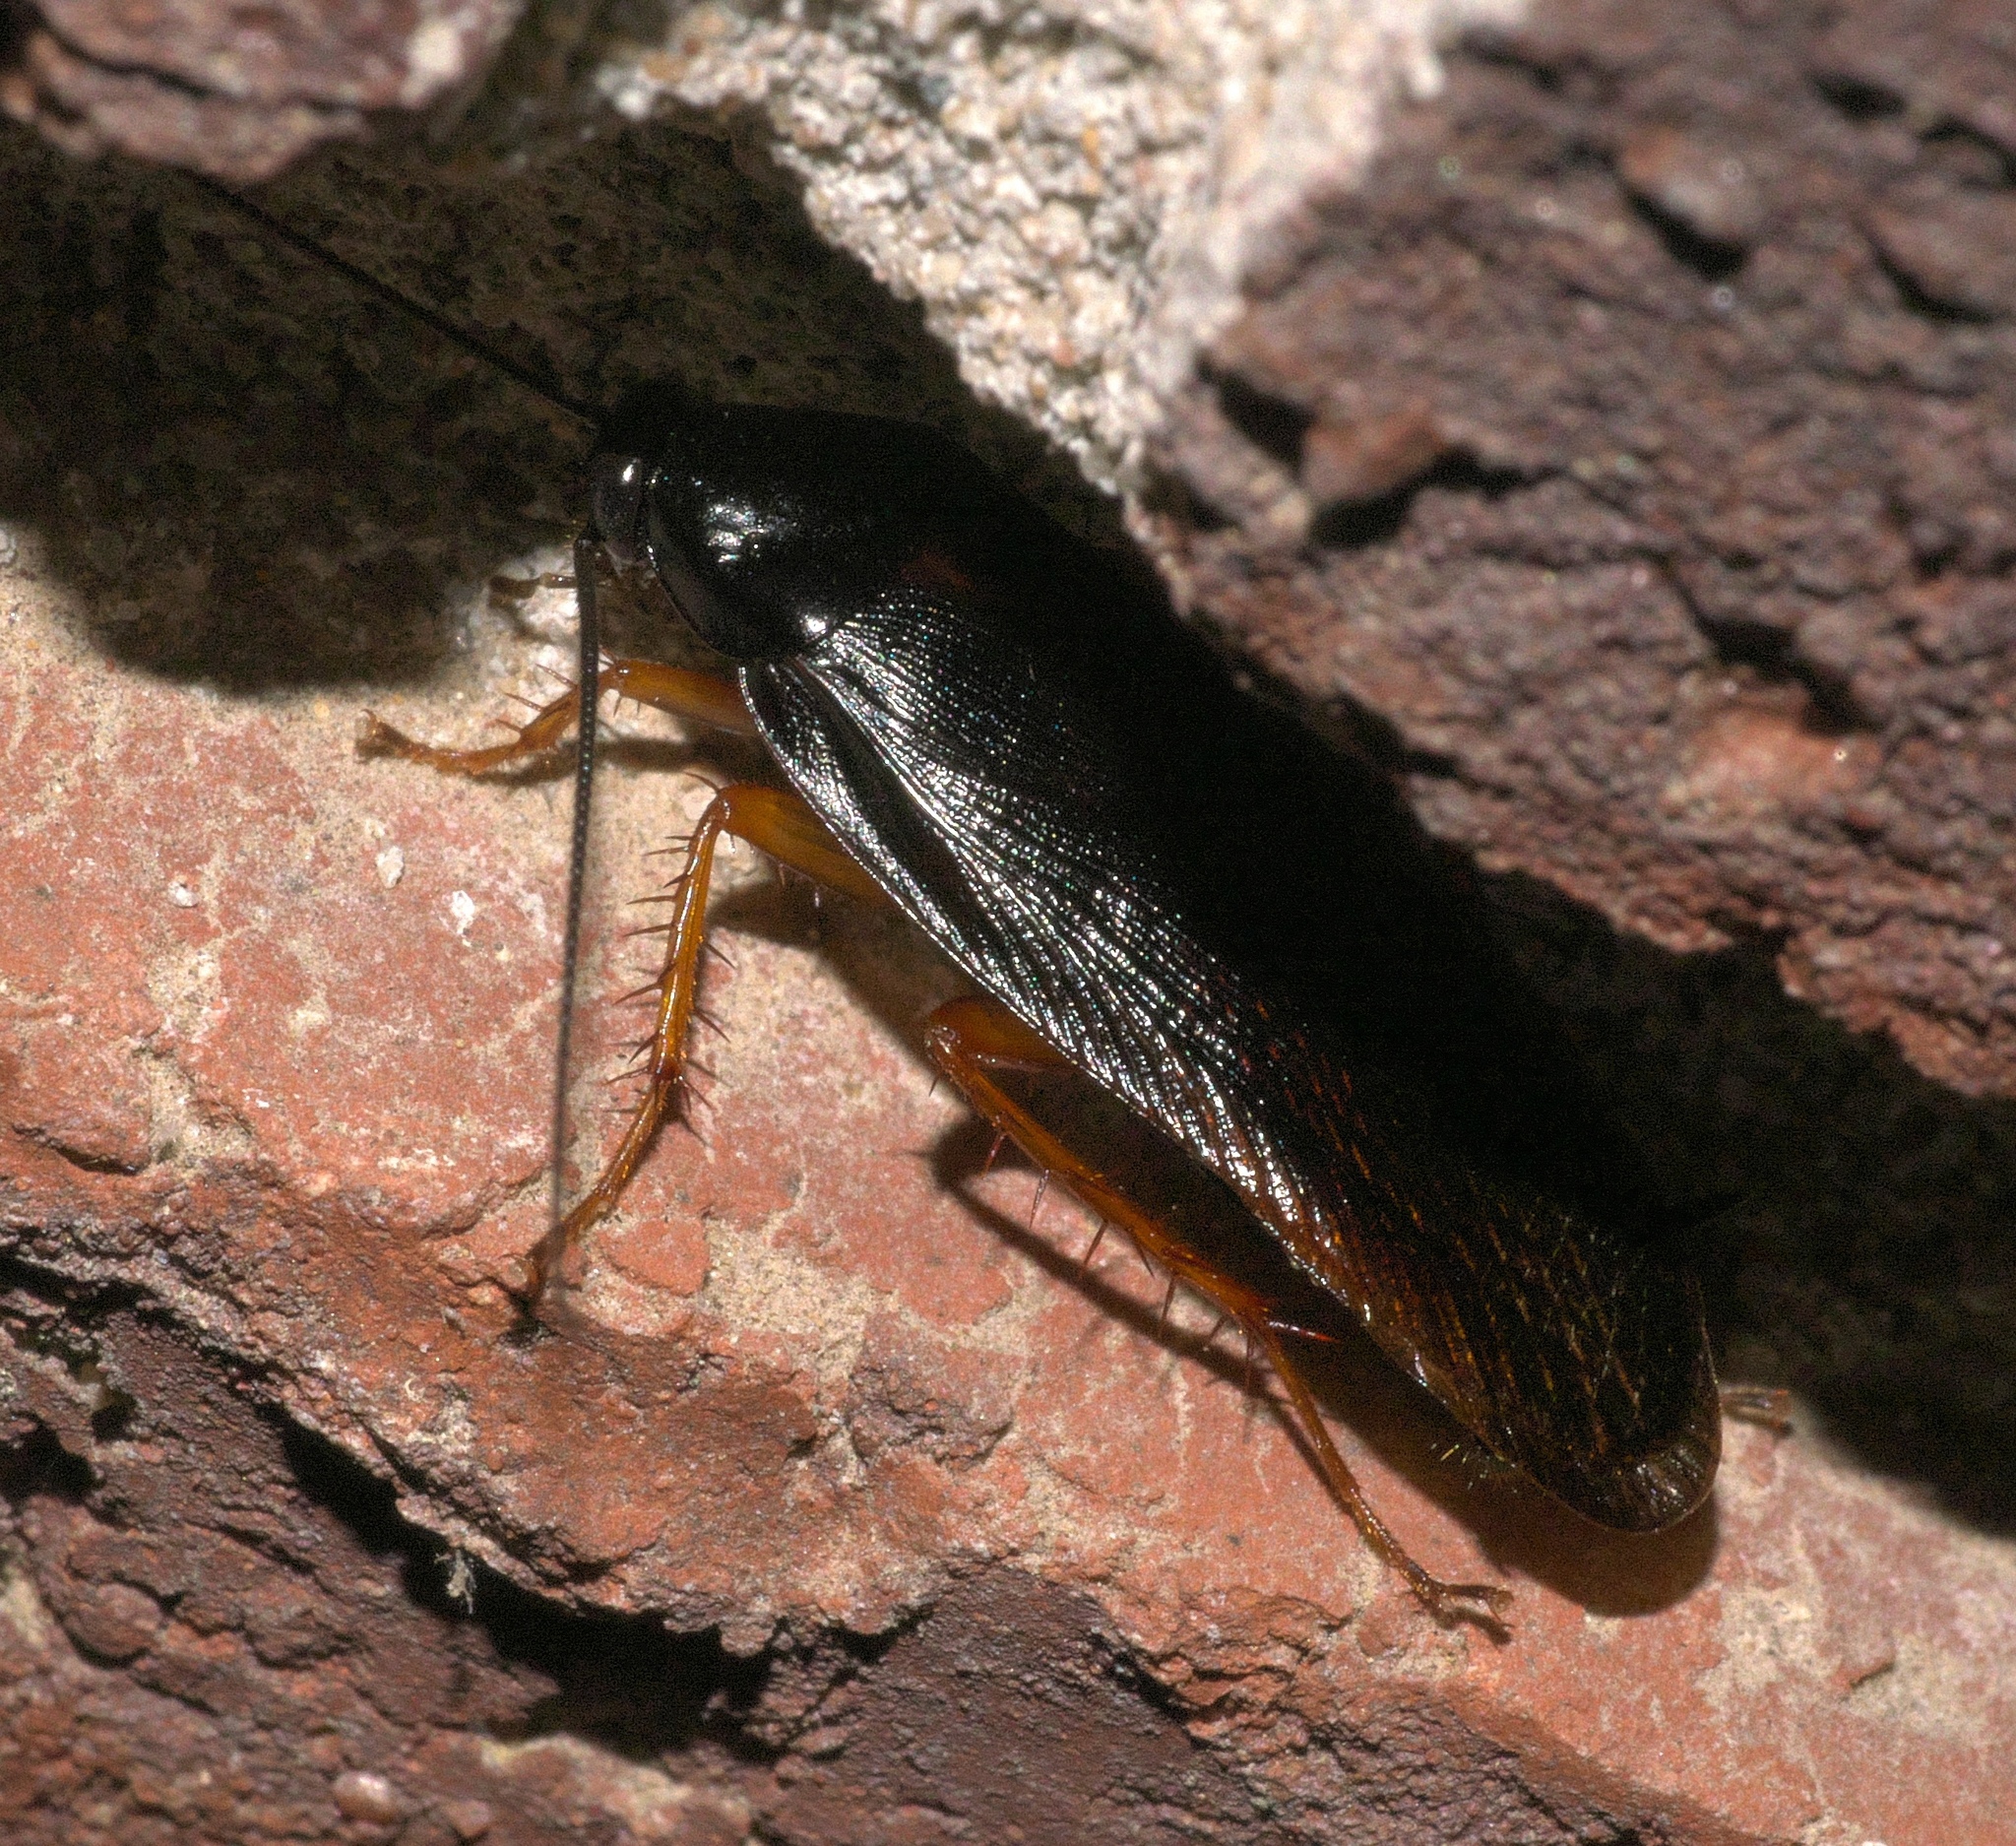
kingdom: Animalia
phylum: Arthropoda
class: Insecta
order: Blattodea
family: Ectobiidae
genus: Ischnoptera
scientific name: Ischnoptera deropeltiformis
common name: Dark wood cockroach
